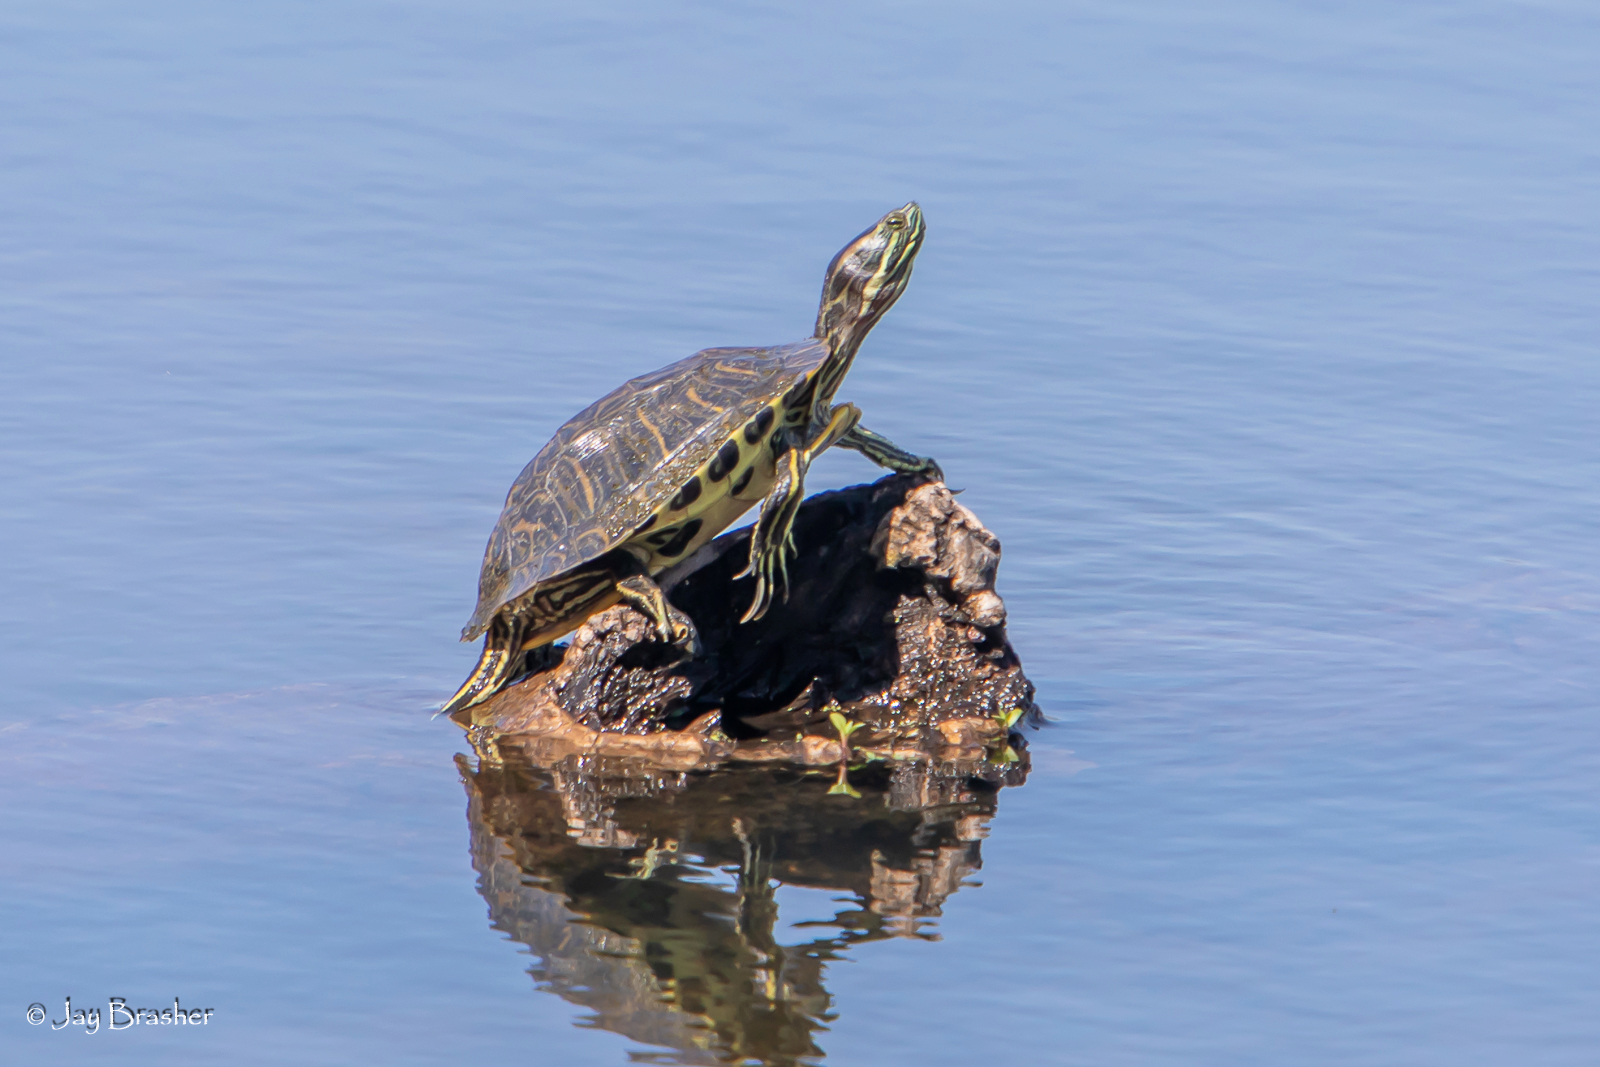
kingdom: Animalia
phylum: Chordata
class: Testudines
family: Emydidae
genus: Trachemys
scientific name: Trachemys scripta
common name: Slider
